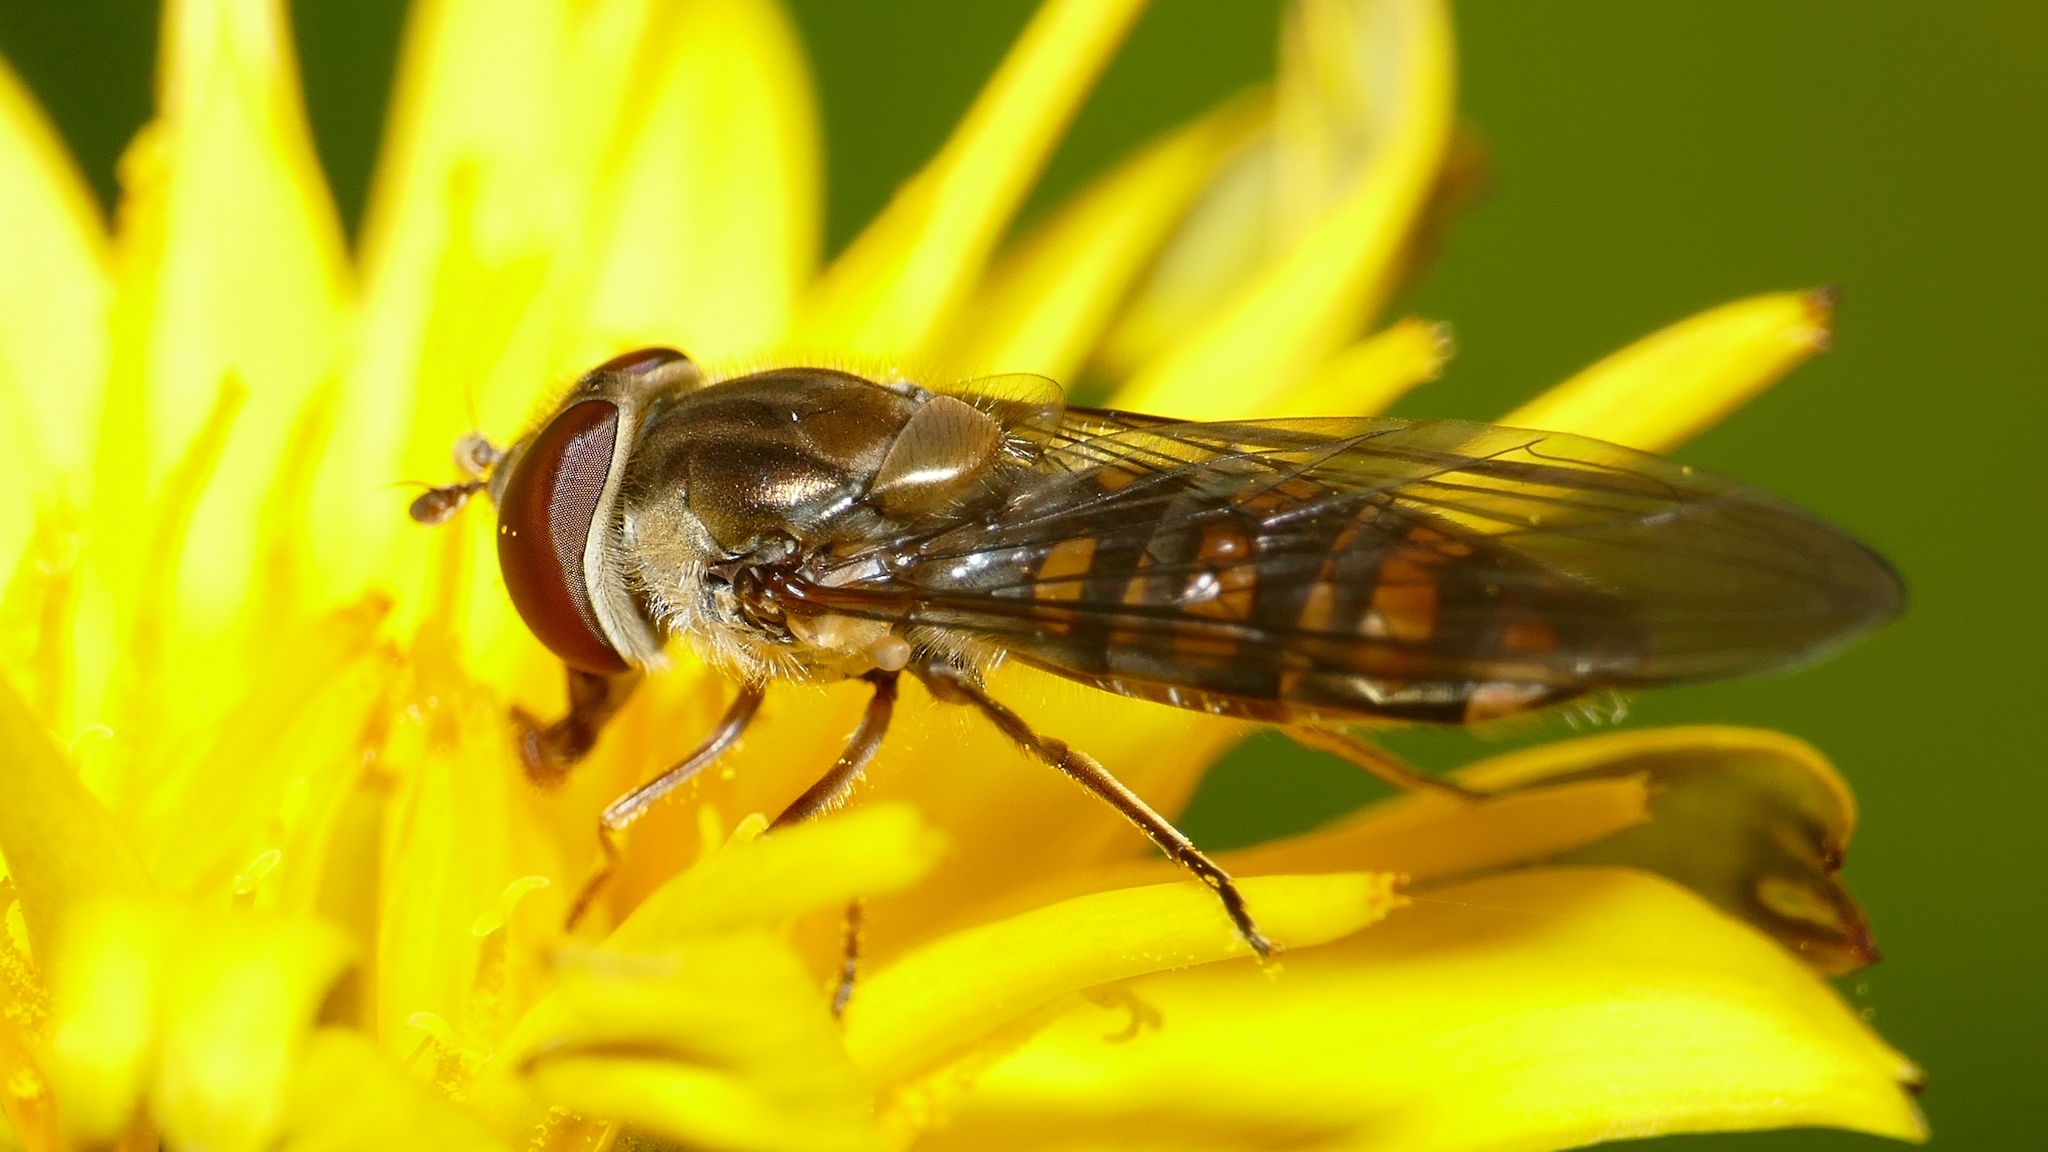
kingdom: Animalia
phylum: Arthropoda
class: Insecta
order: Diptera
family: Syrphidae
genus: Episyrphus
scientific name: Episyrphus balteatus
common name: Marmalade hoverfly
